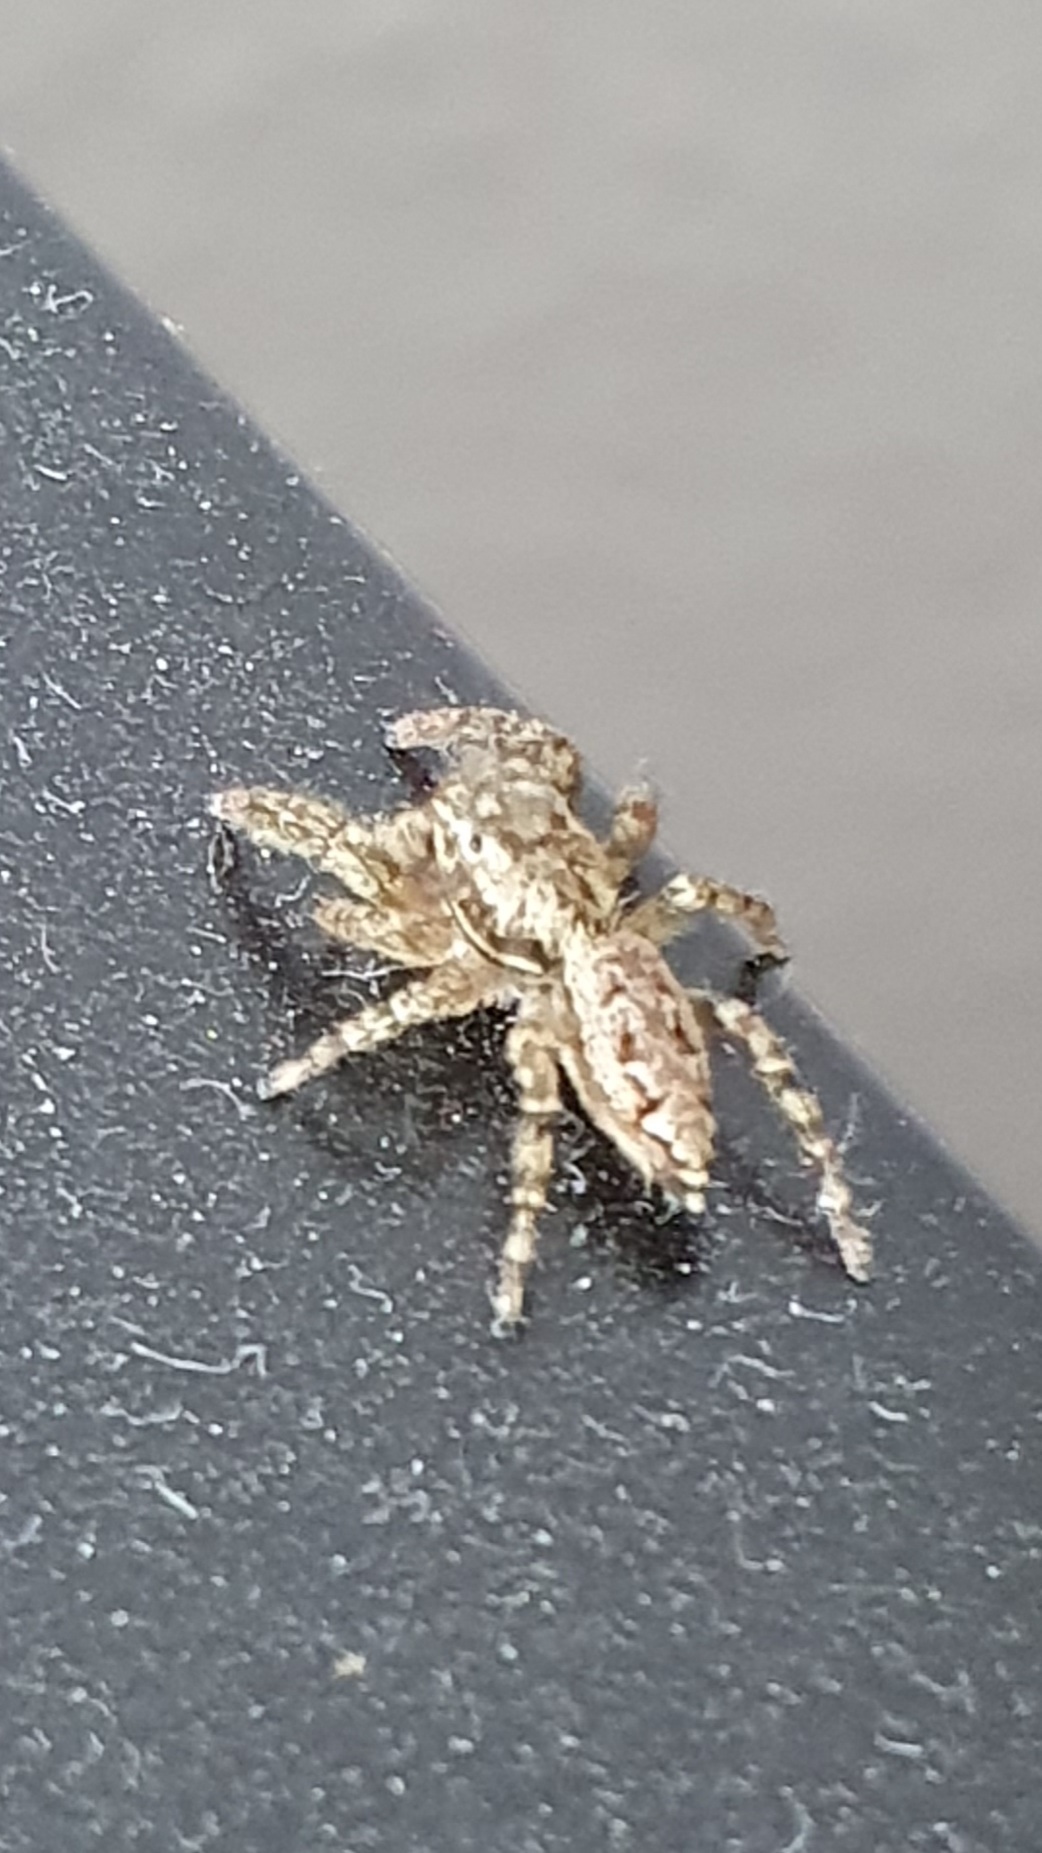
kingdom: Animalia
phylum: Arthropoda
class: Arachnida
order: Araneae
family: Salticidae
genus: Marpissa
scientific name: Marpissa muscosa
